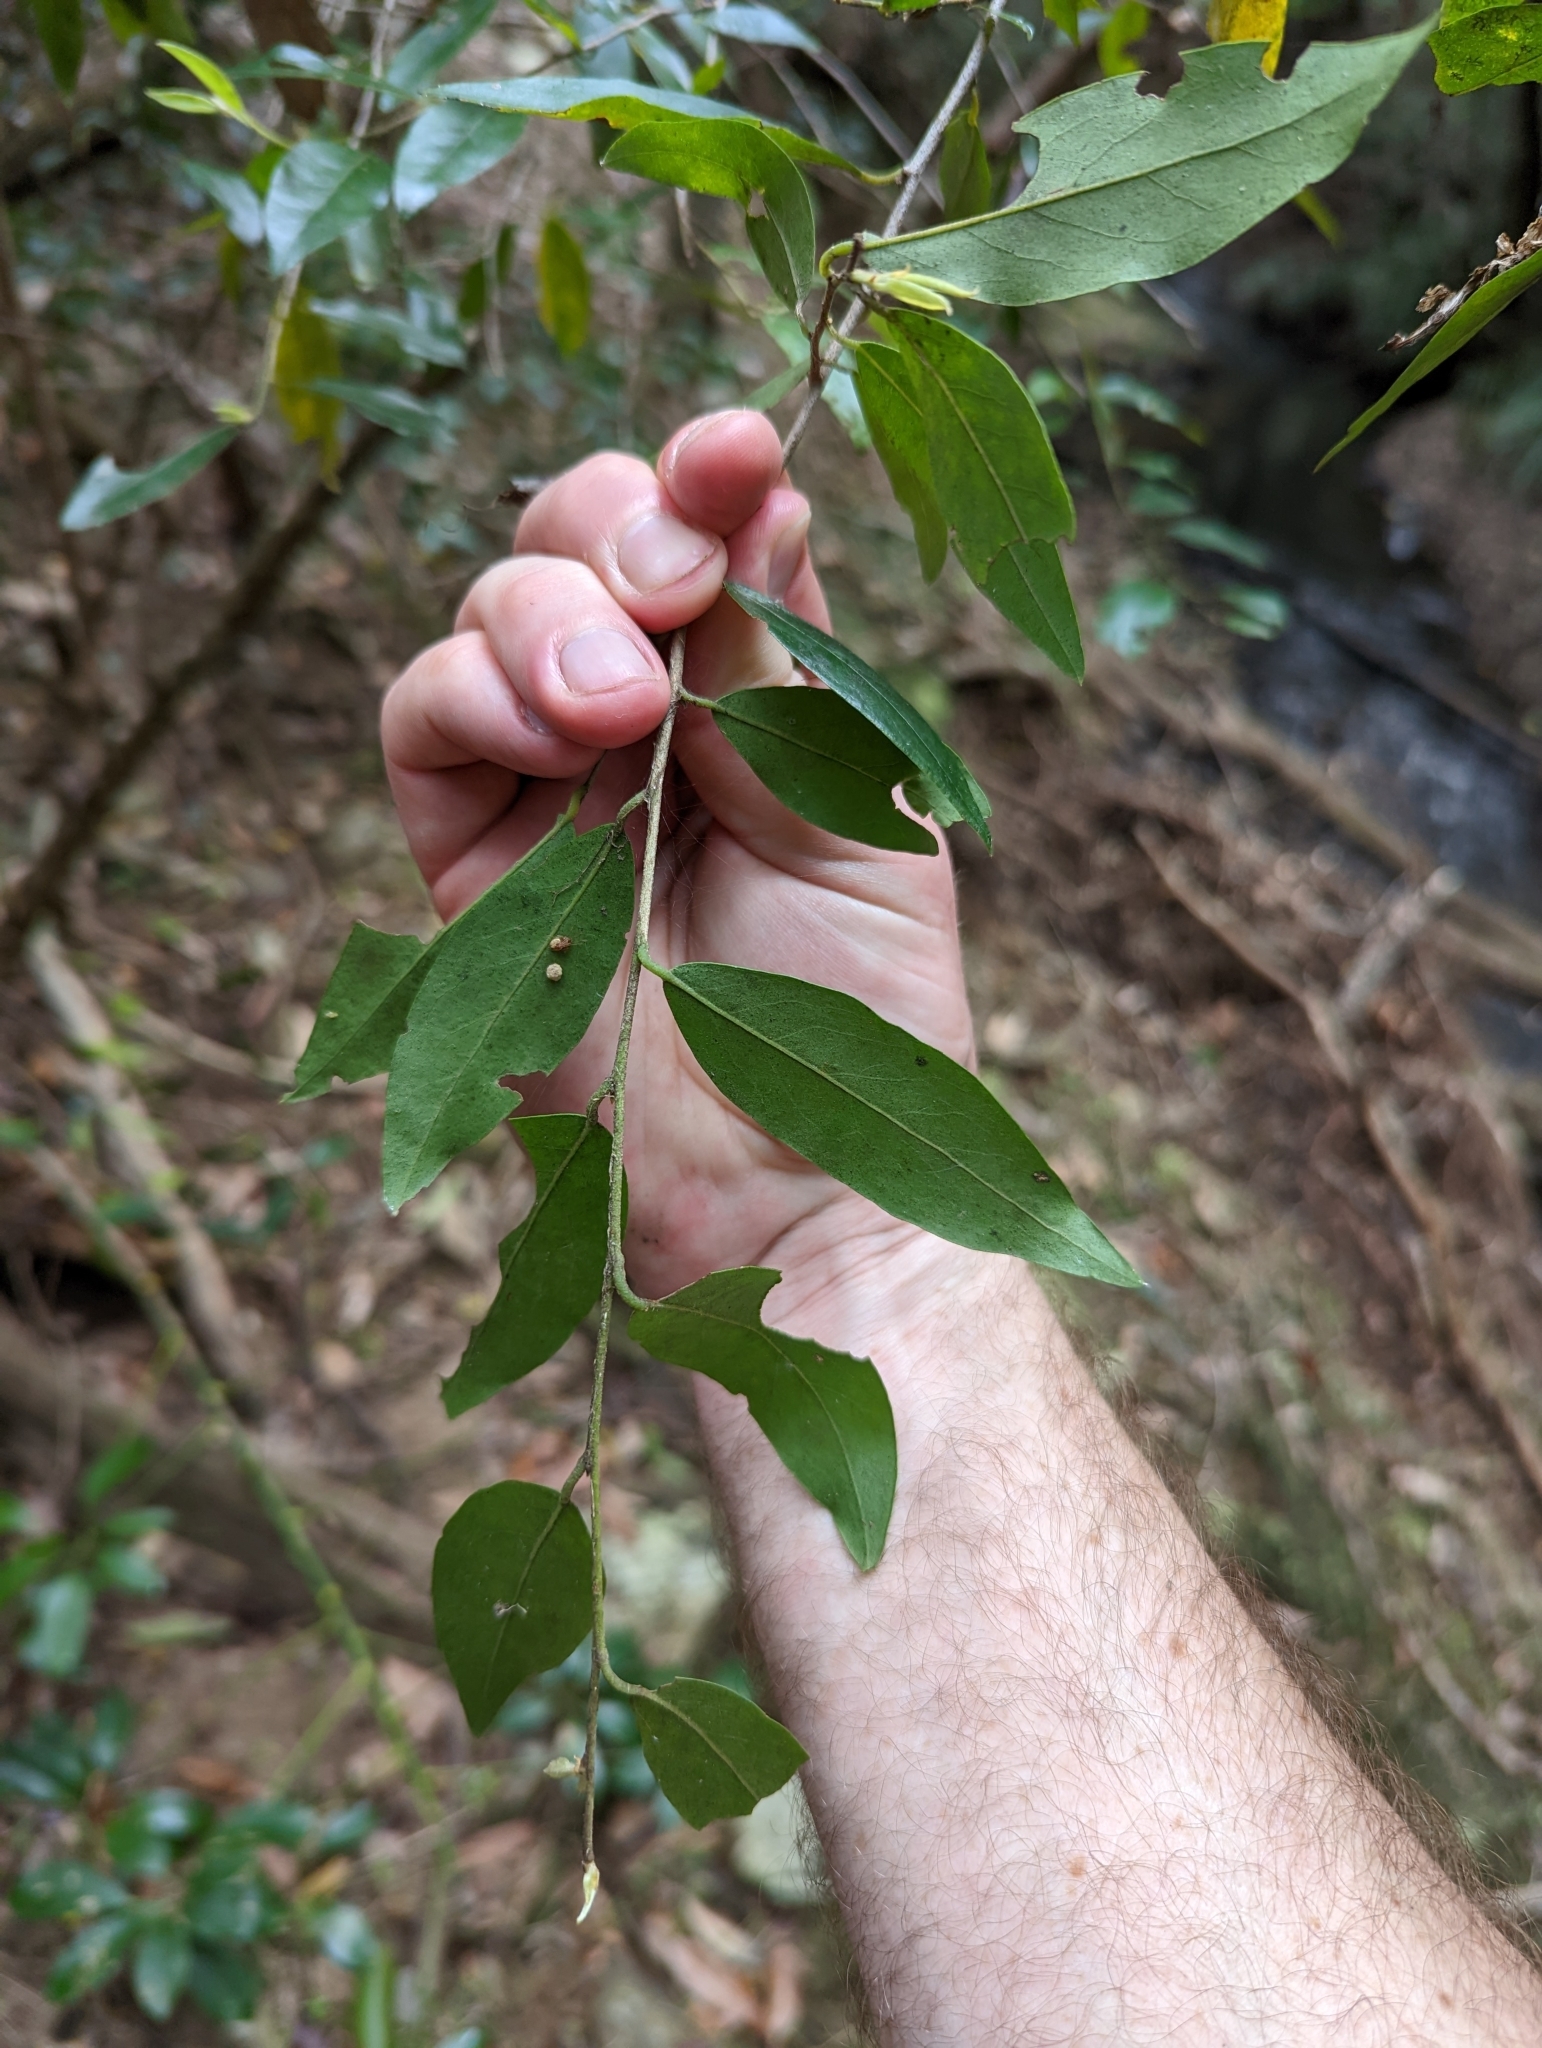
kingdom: Plantae
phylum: Tracheophyta
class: Magnoliopsida
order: Malpighiales
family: Picrodendraceae
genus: Petalostigma
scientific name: Petalostigma triloculare
